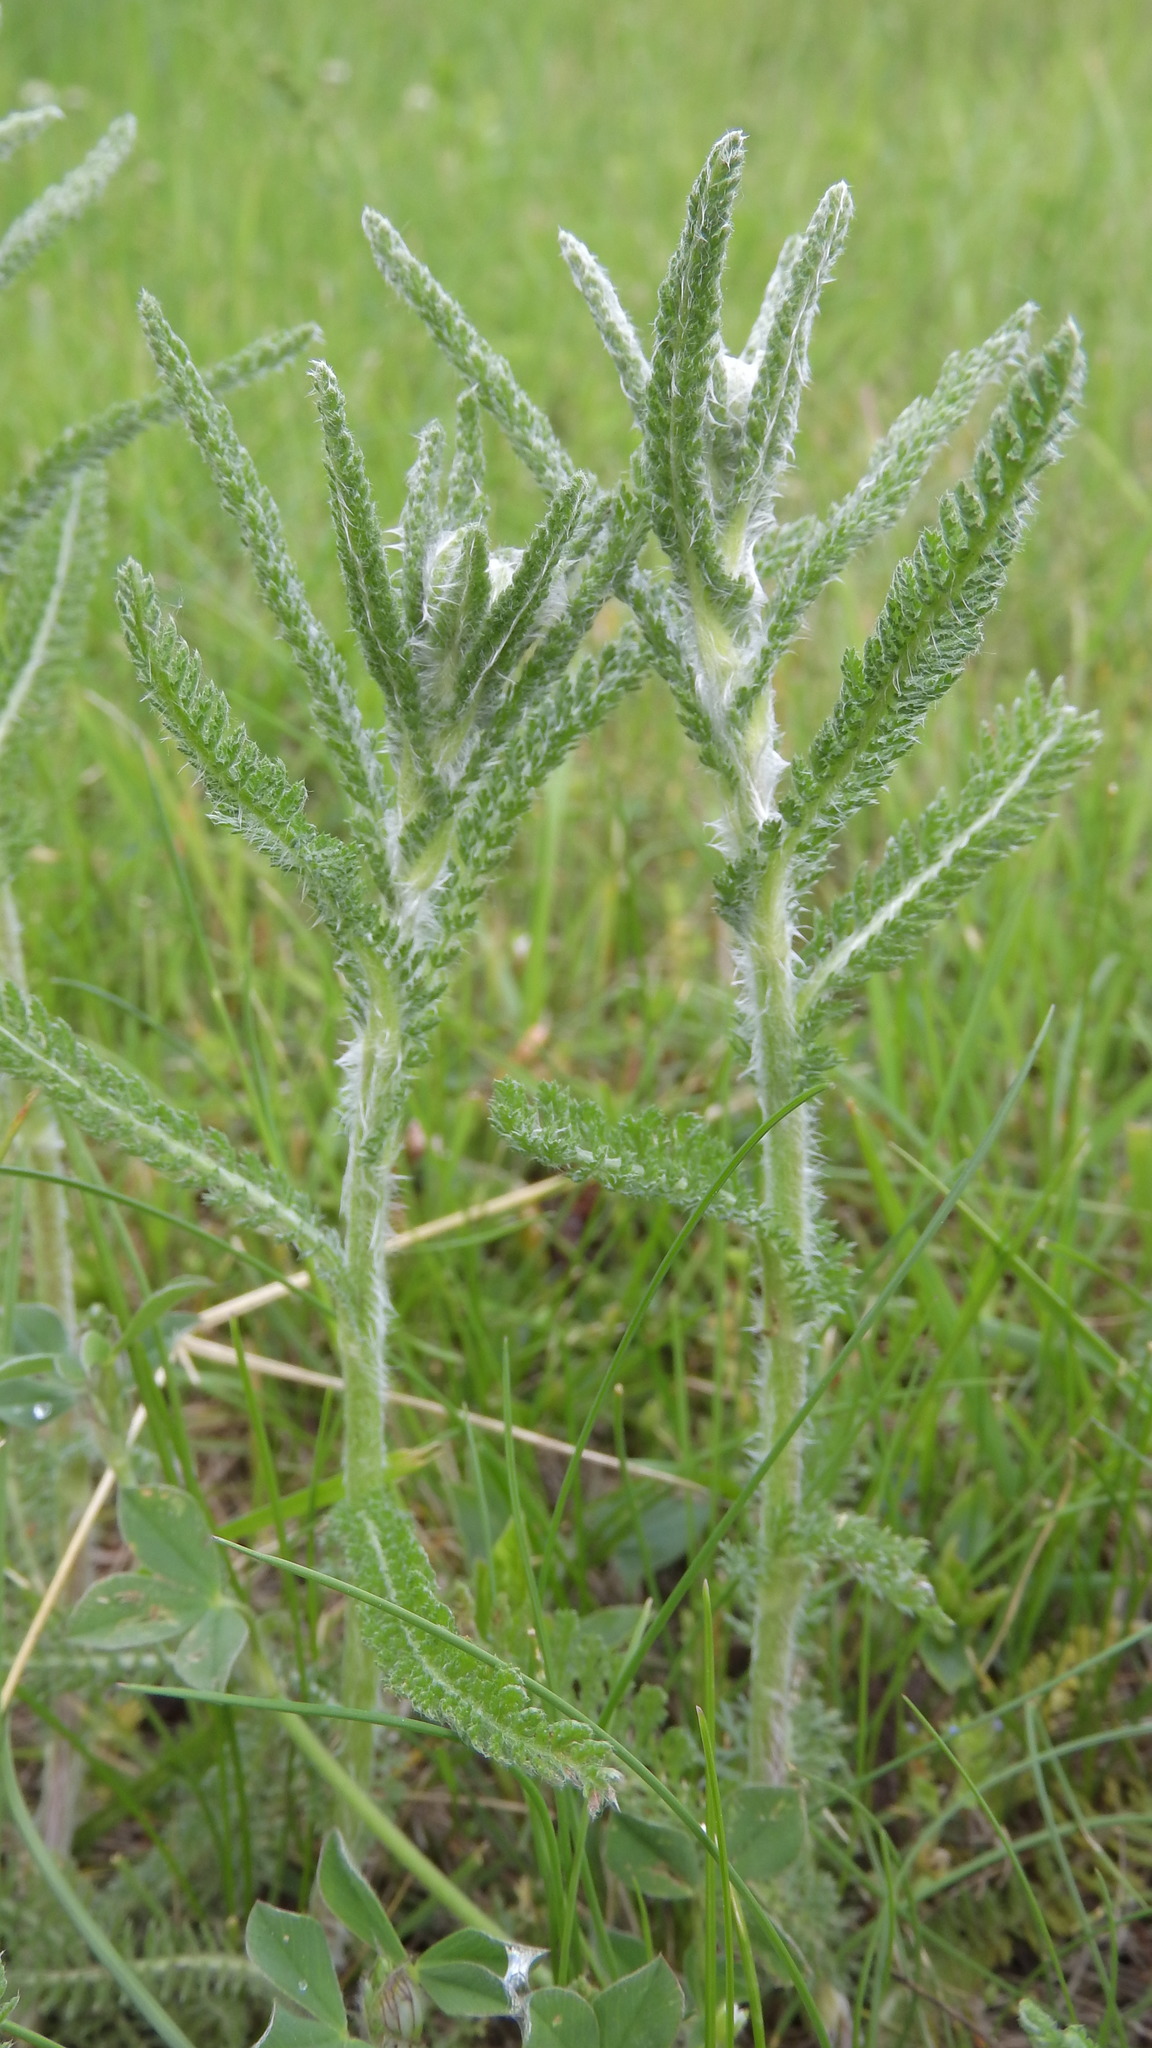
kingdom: Plantae
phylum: Tracheophyta
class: Magnoliopsida
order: Asterales
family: Asteraceae
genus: Achillea
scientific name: Achillea millefolium
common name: Yarrow
